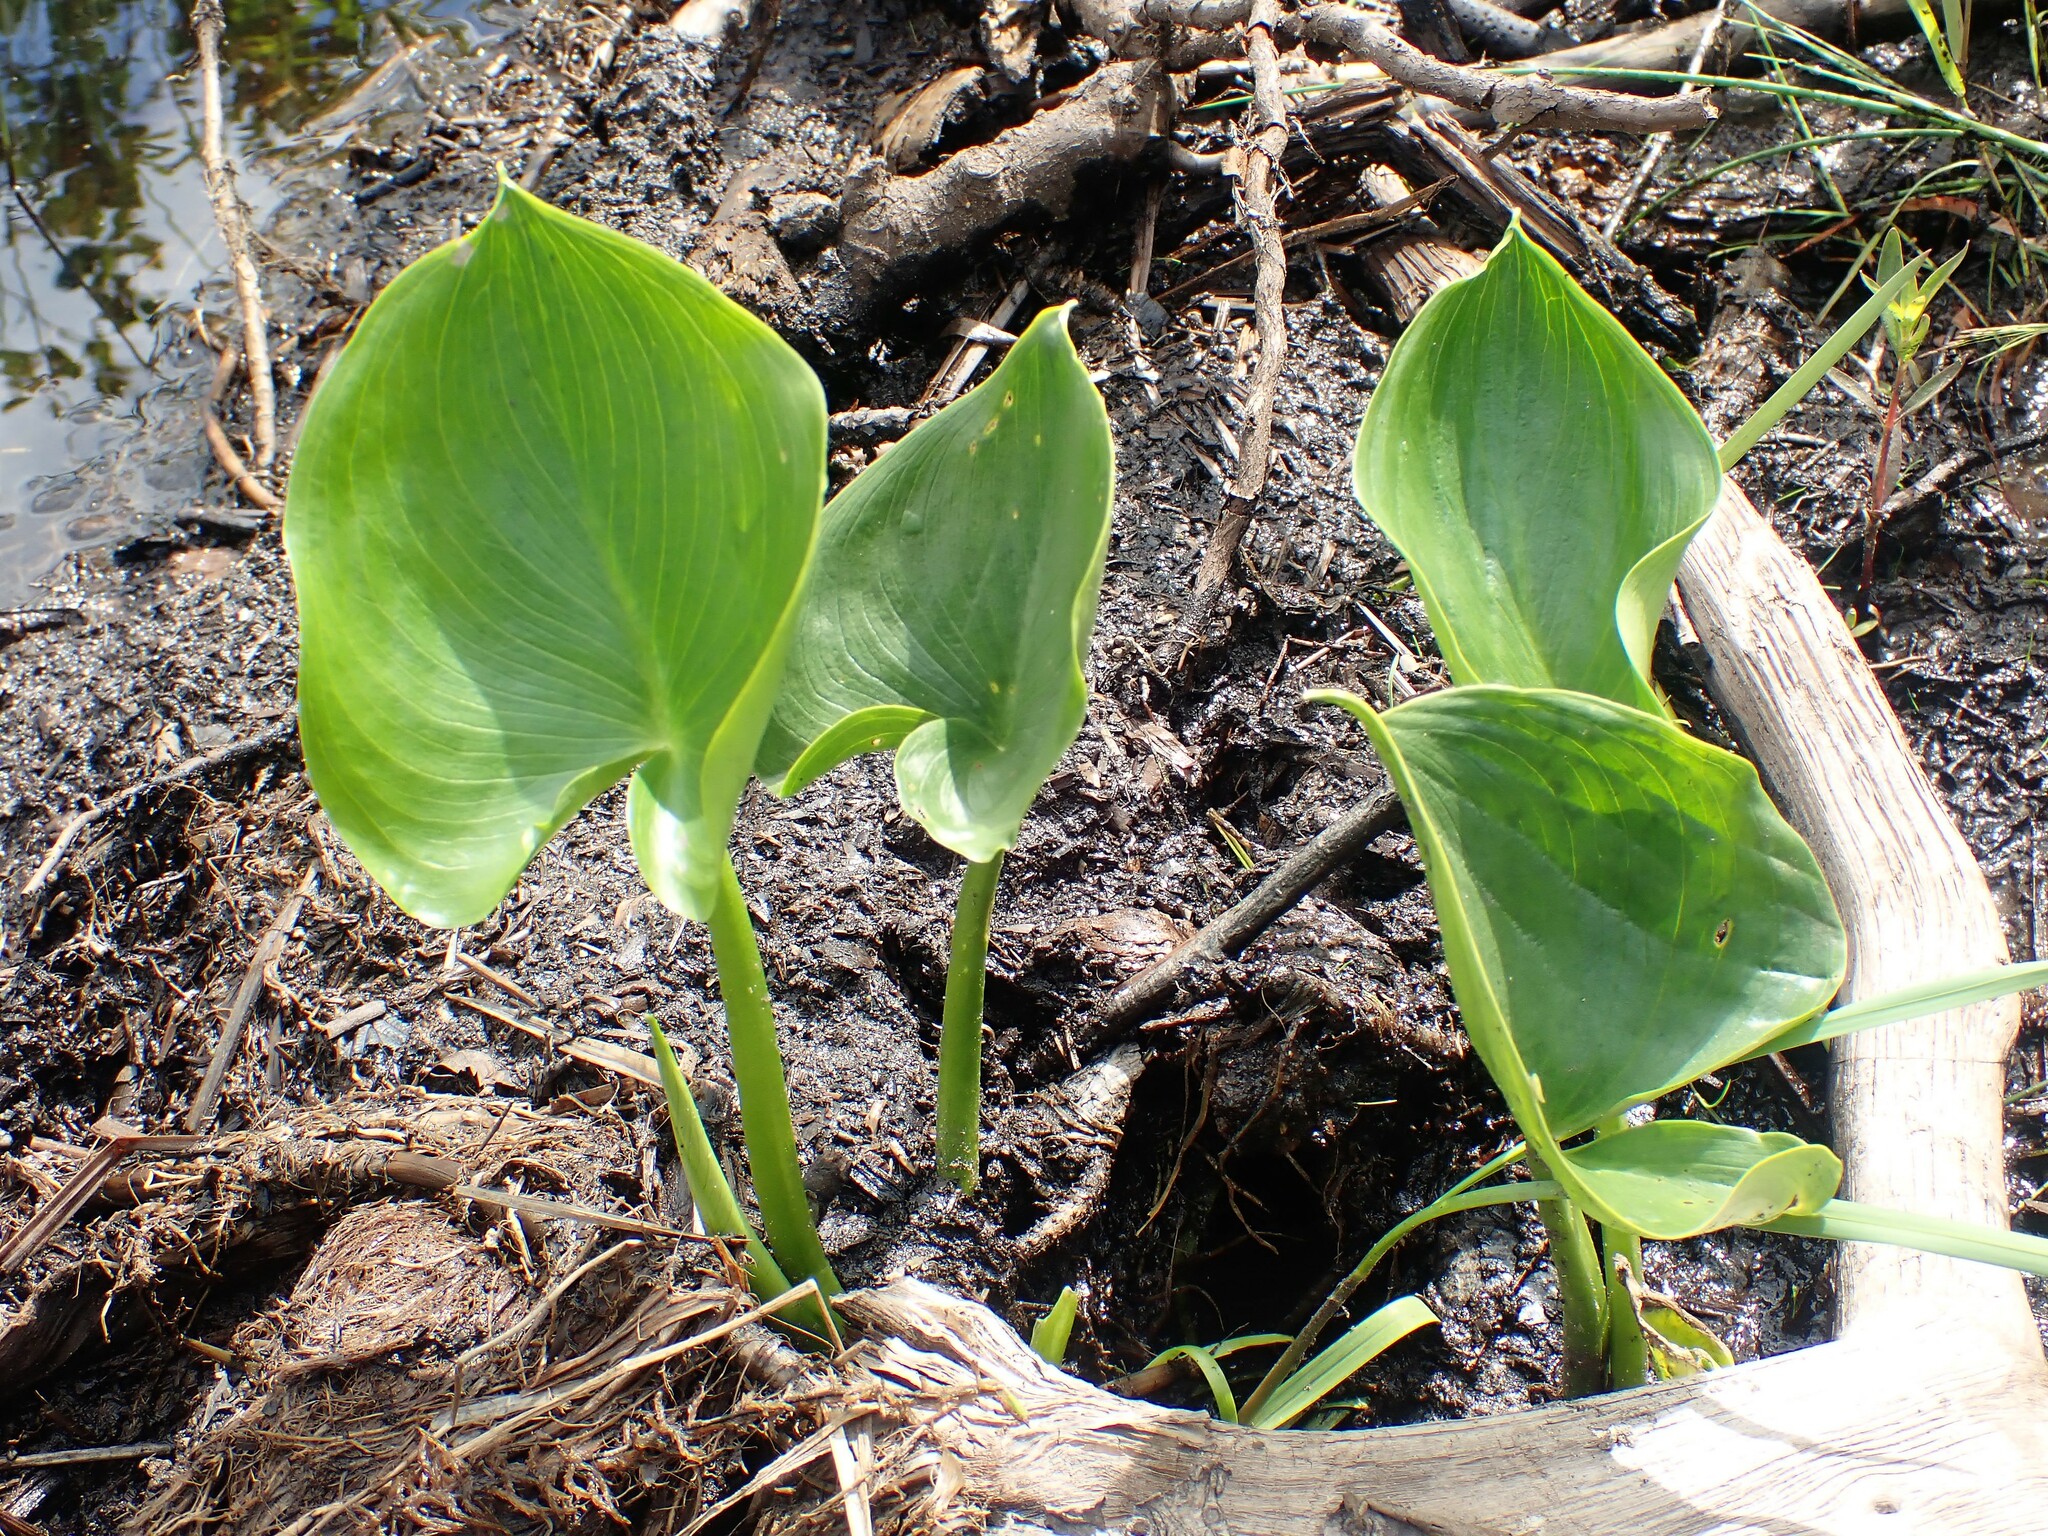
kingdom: Plantae
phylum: Tracheophyta
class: Liliopsida
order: Alismatales
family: Araceae
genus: Calla
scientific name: Calla palustris
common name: Bog arum
